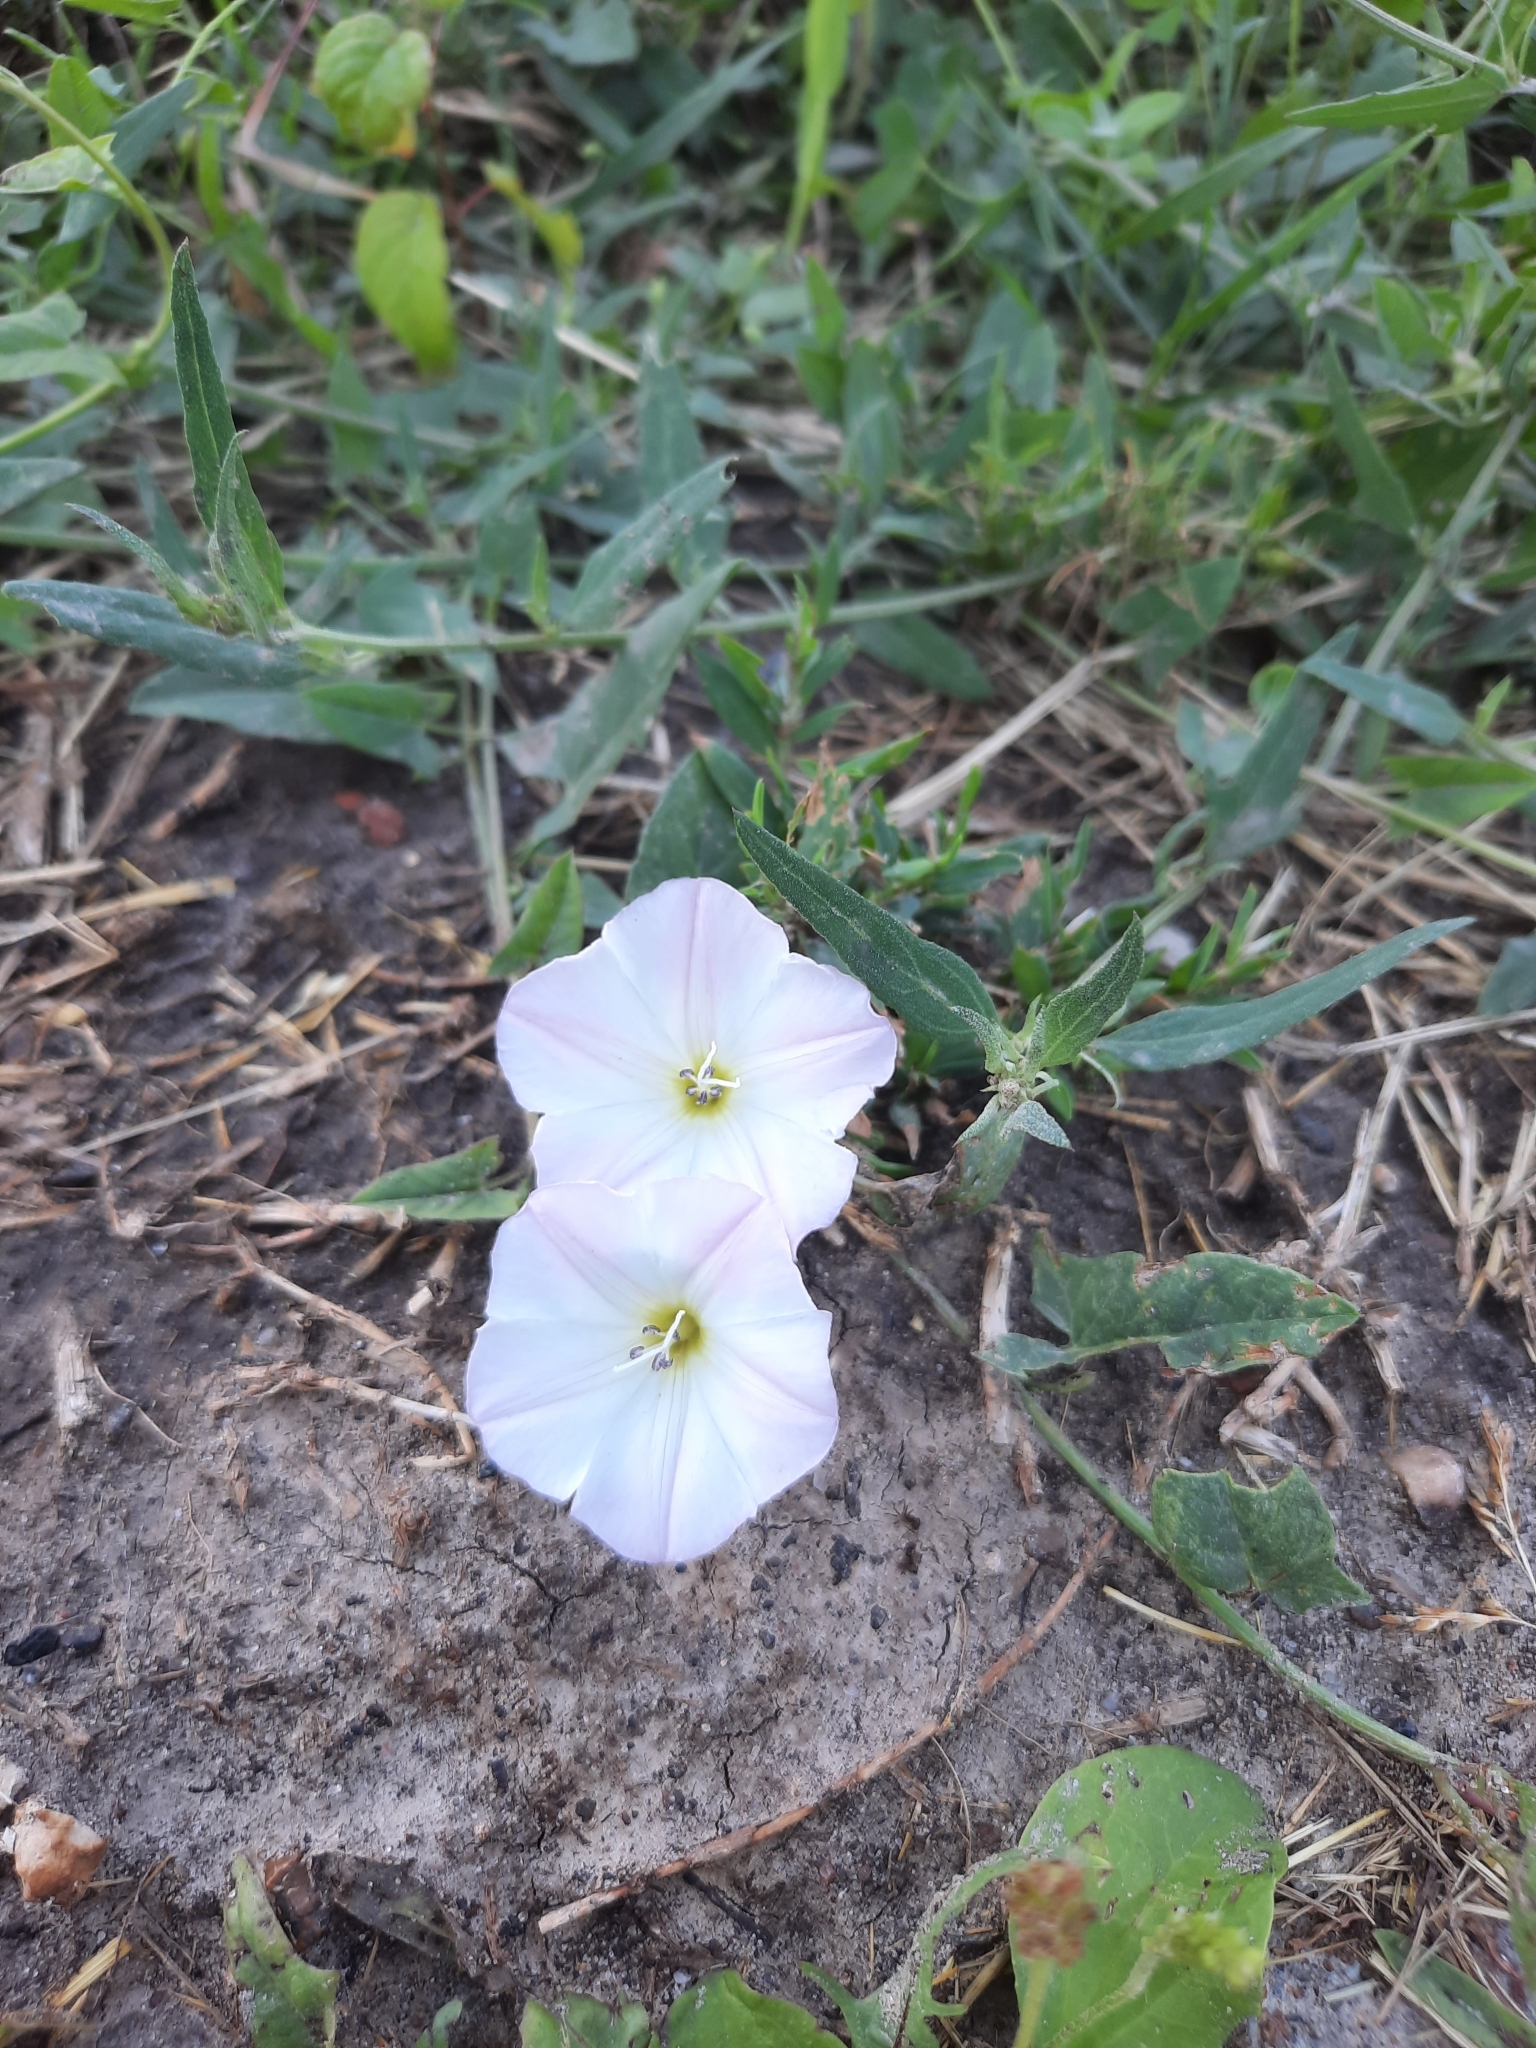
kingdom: Plantae
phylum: Tracheophyta
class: Magnoliopsida
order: Solanales
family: Convolvulaceae
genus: Convolvulus
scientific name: Convolvulus arvensis
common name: Field bindweed
